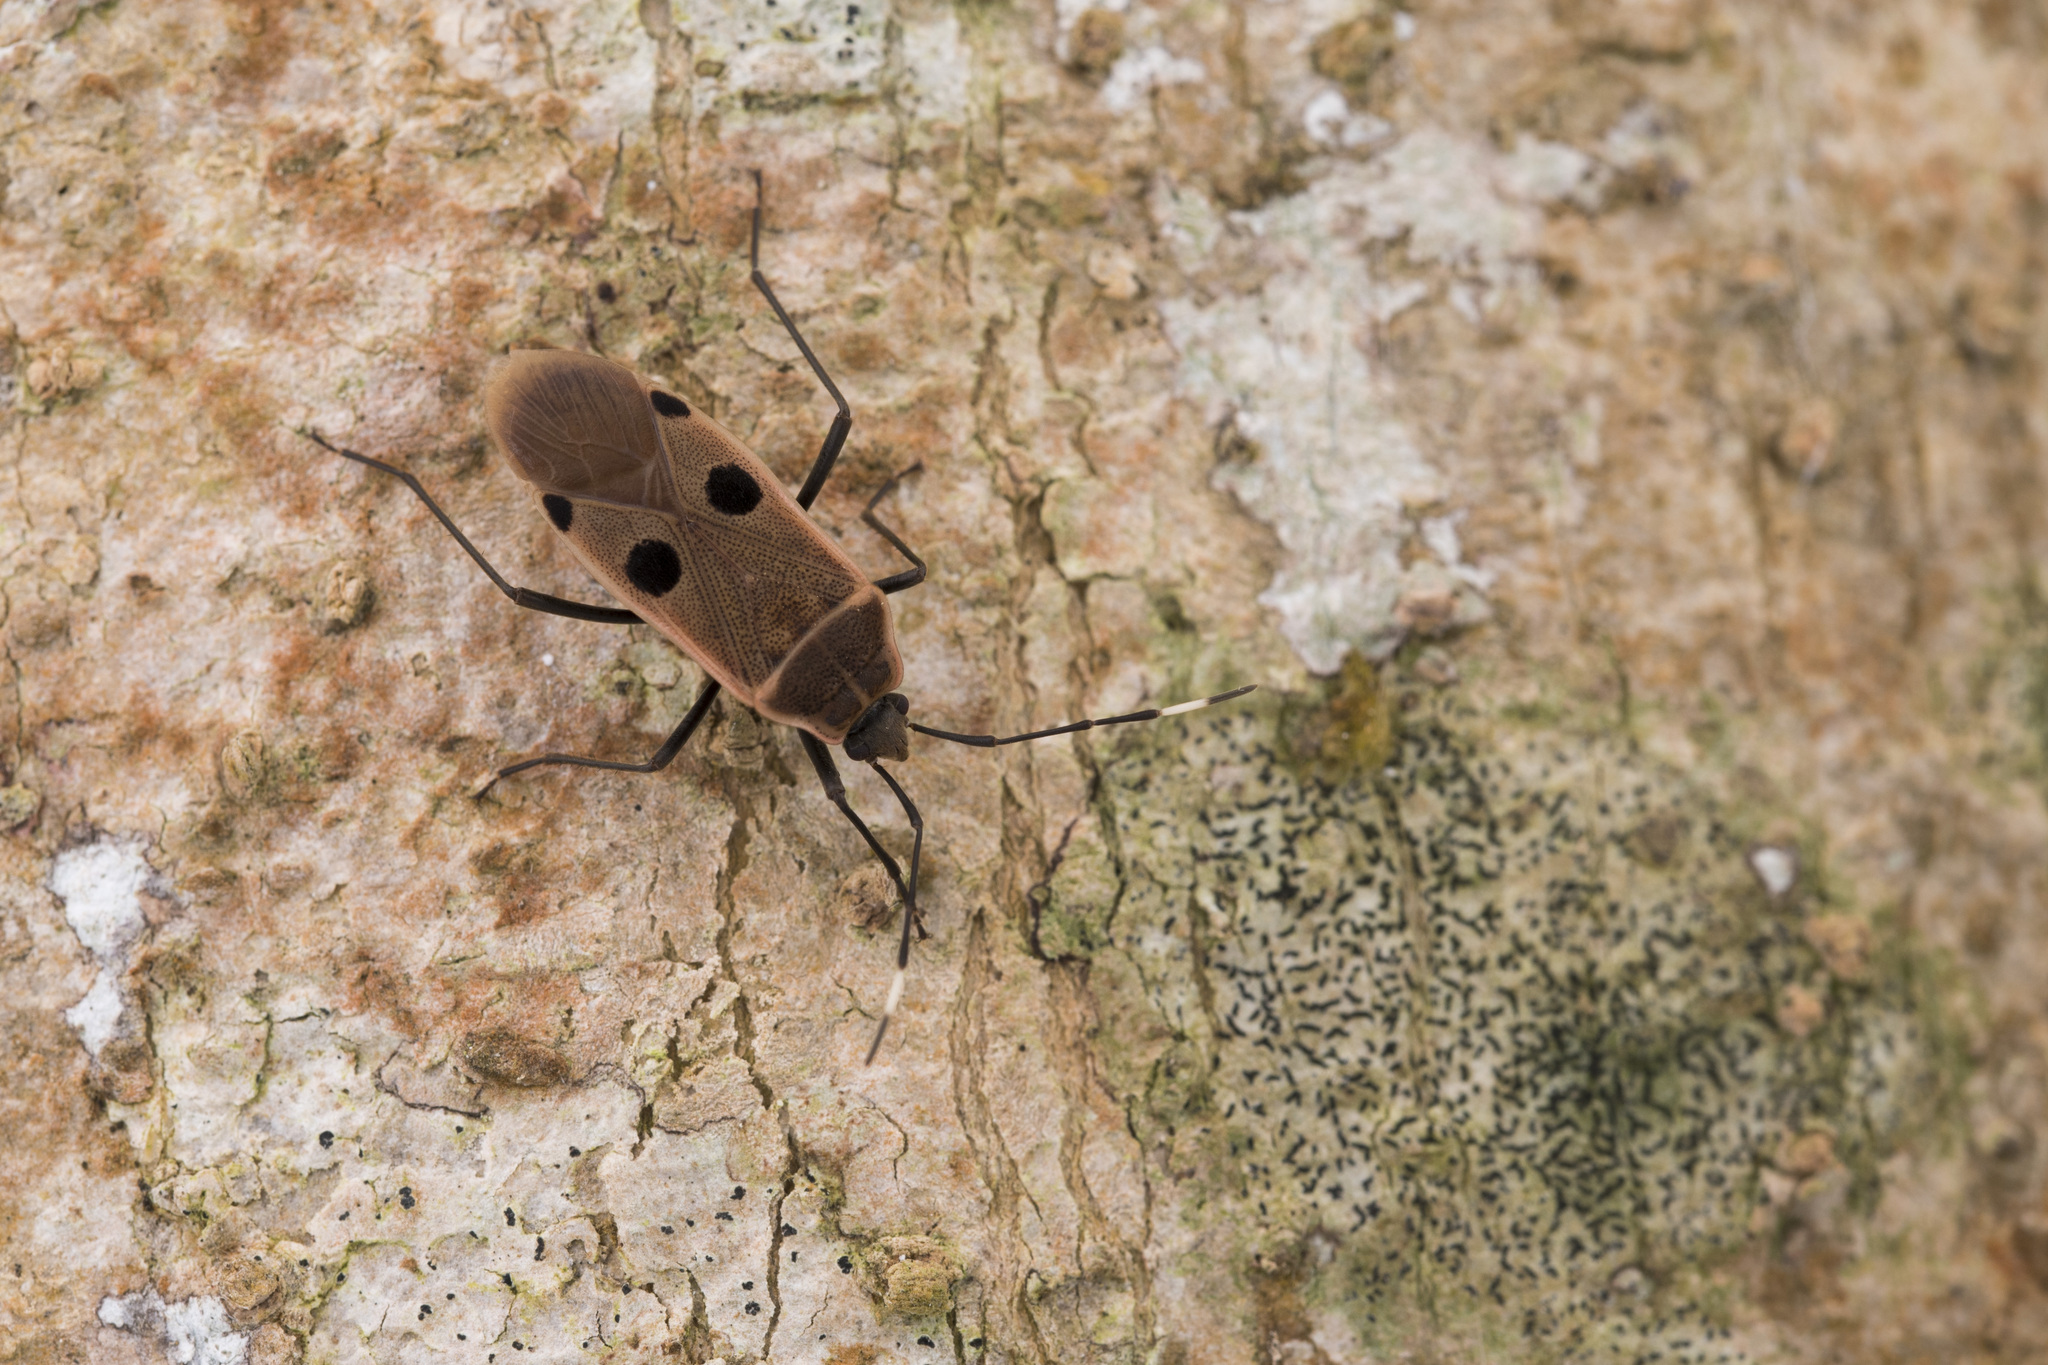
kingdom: Animalia
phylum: Arthropoda
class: Insecta
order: Hemiptera
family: Largidae
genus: Physopelta
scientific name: Physopelta quadriguttata
